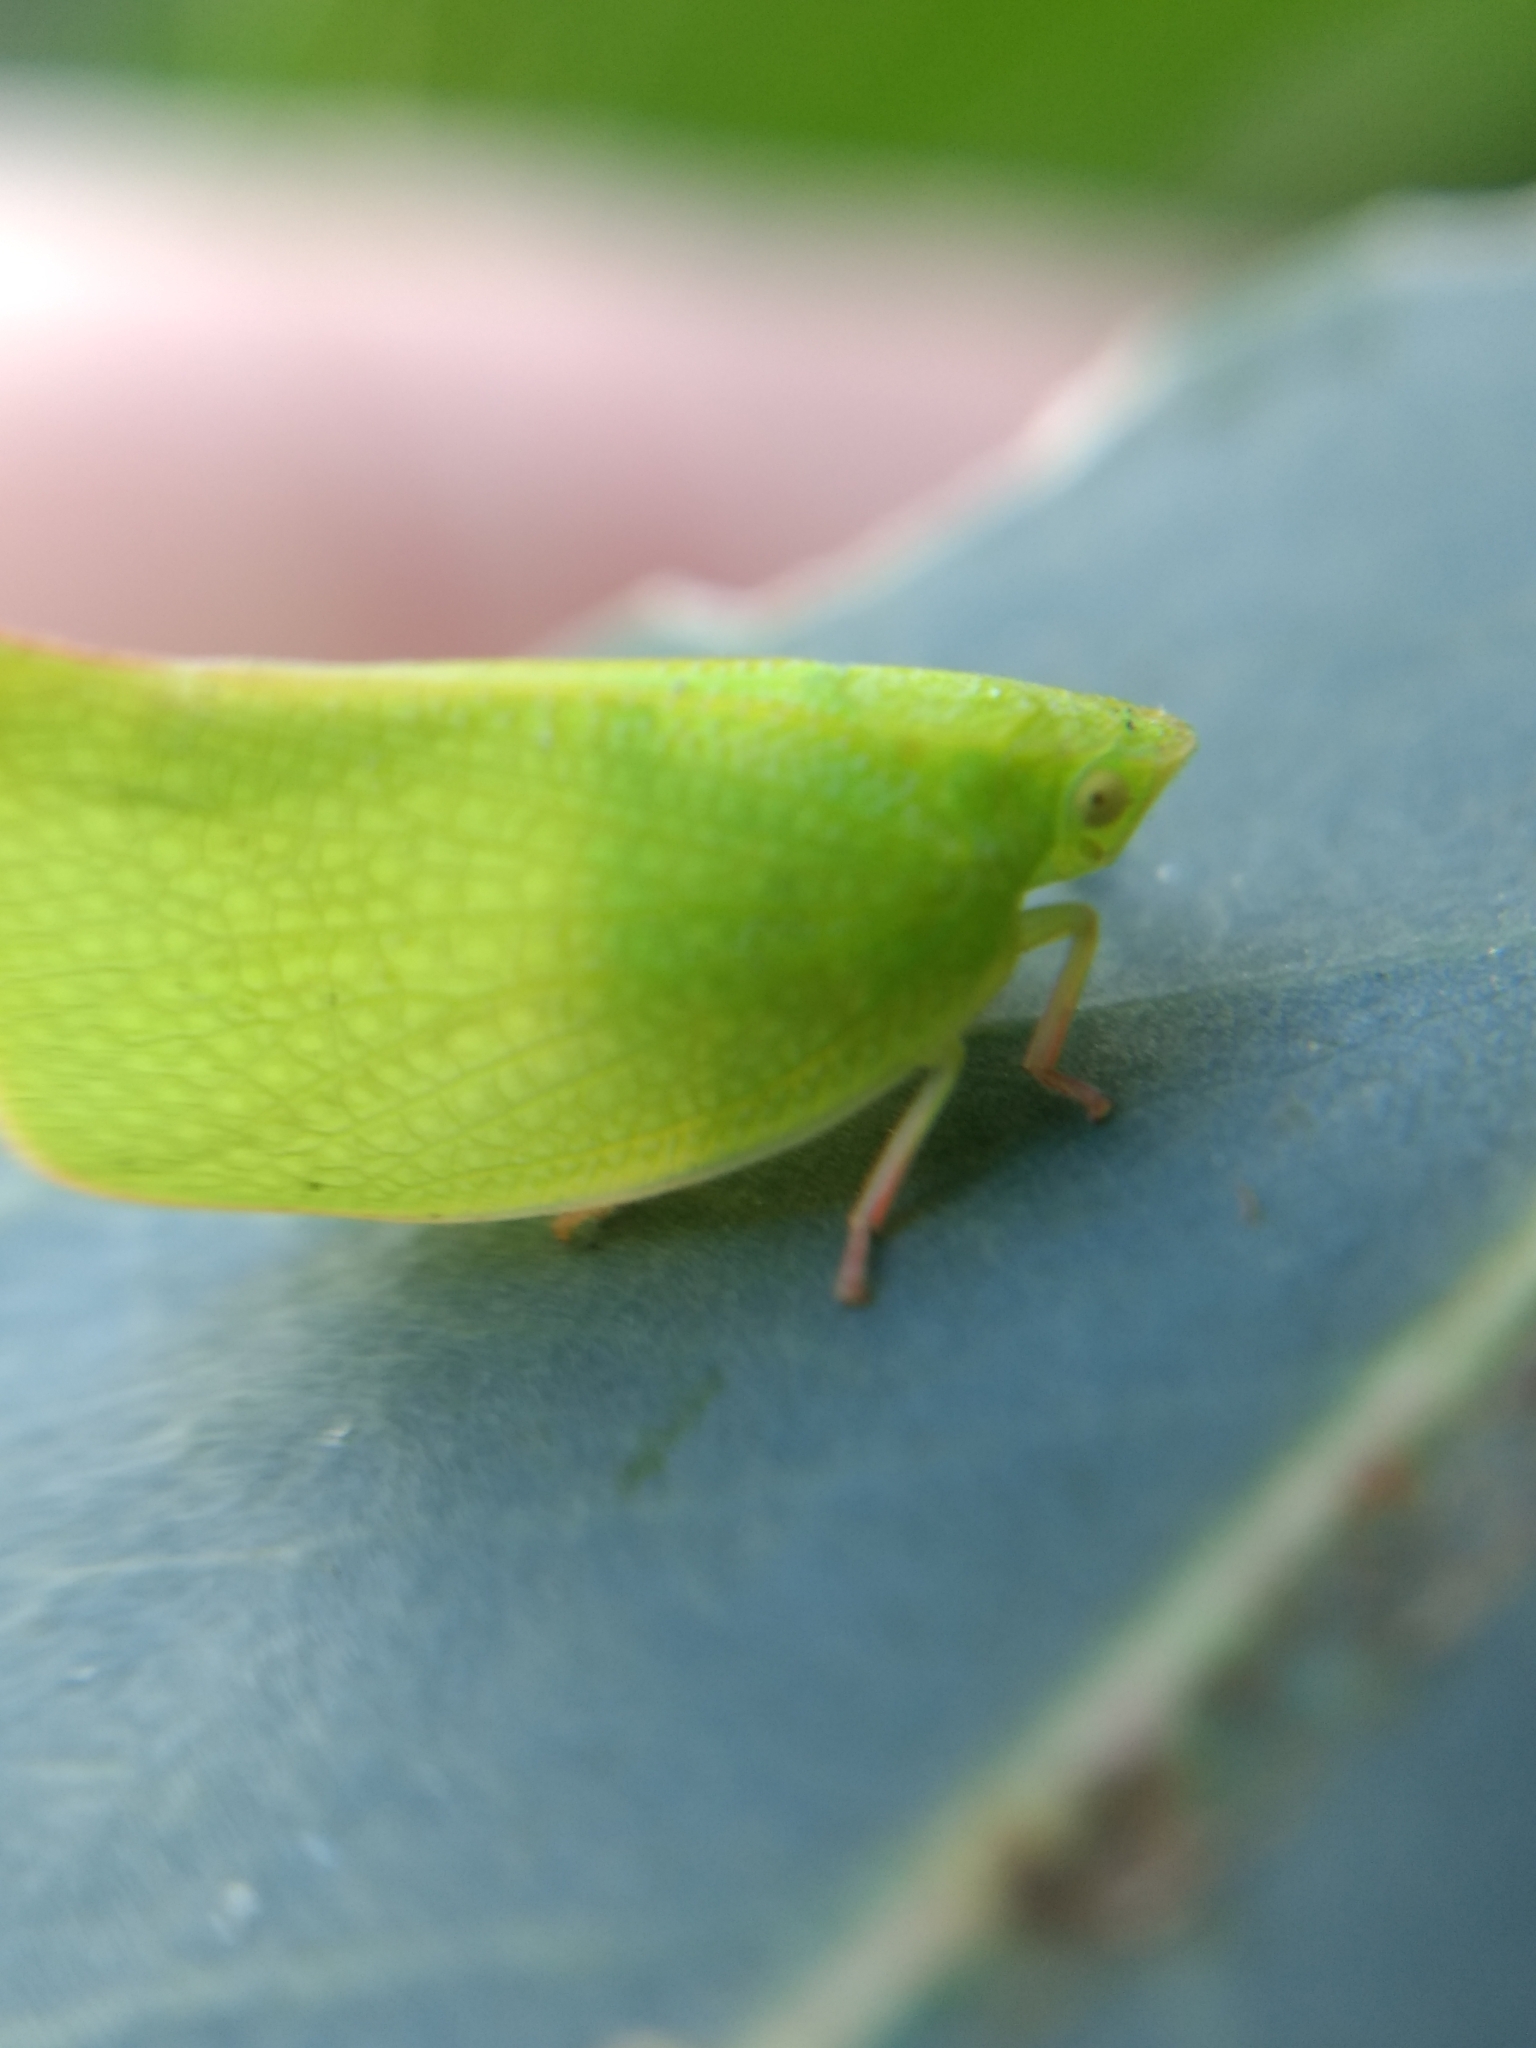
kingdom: Animalia
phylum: Arthropoda
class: Insecta
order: Hemiptera
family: Flatidae
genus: Siphanta
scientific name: Siphanta acuta
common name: Torpedo bug
